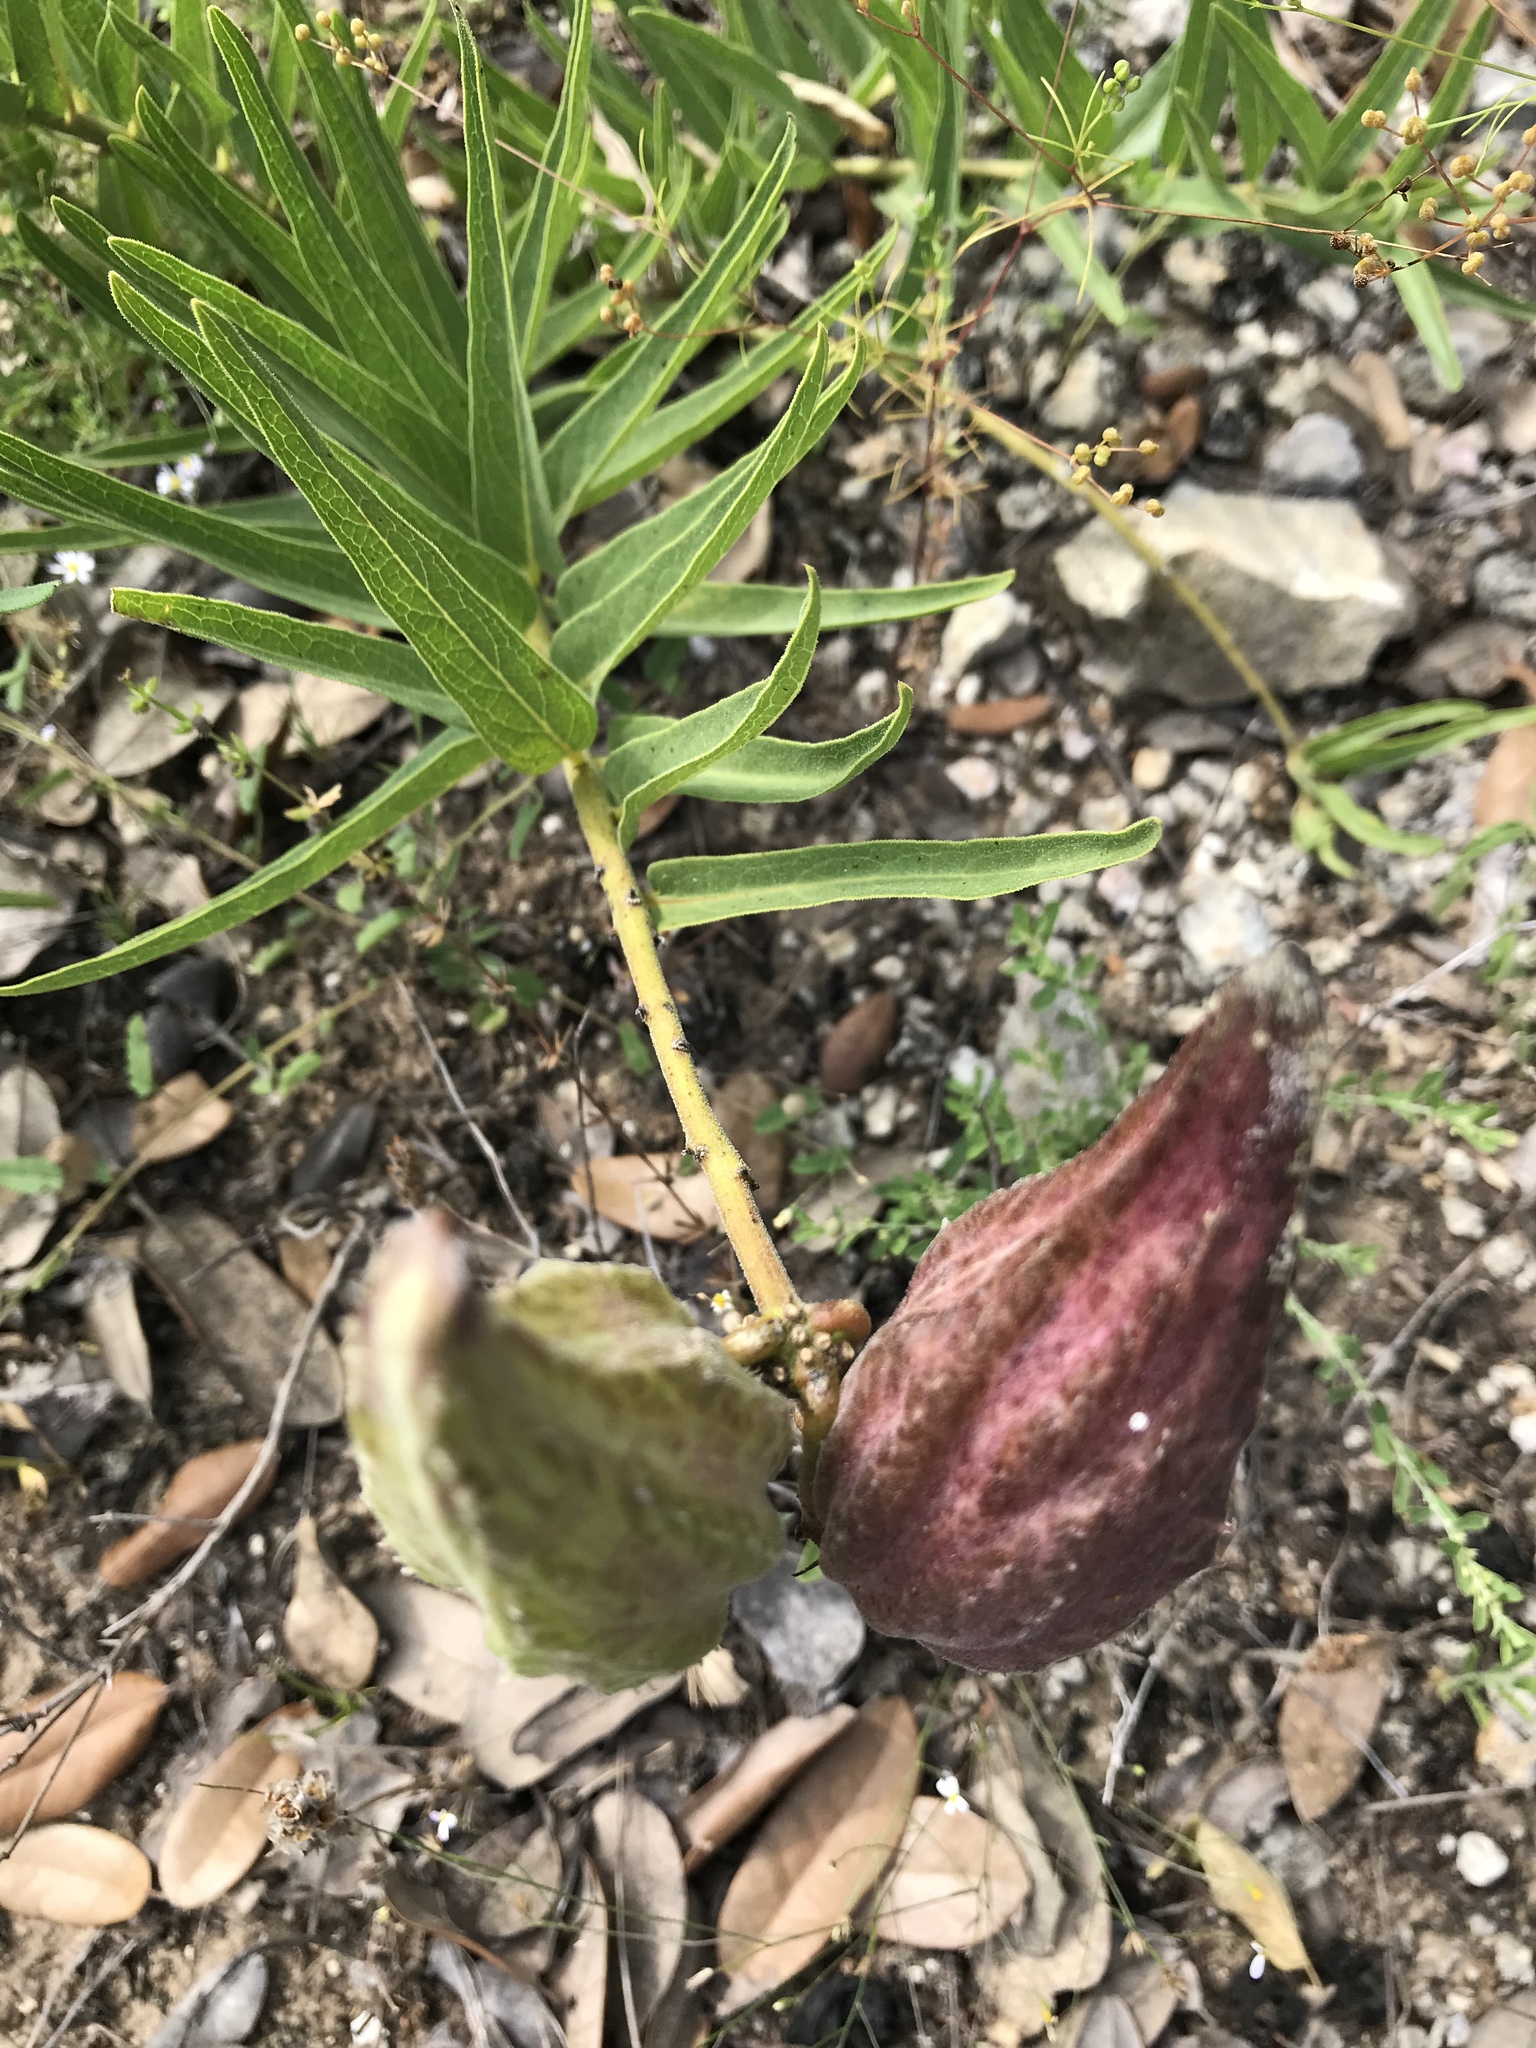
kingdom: Plantae
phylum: Tracheophyta
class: Magnoliopsida
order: Gentianales
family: Apocynaceae
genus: Asclepias
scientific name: Asclepias asperula
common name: Antelope horns
